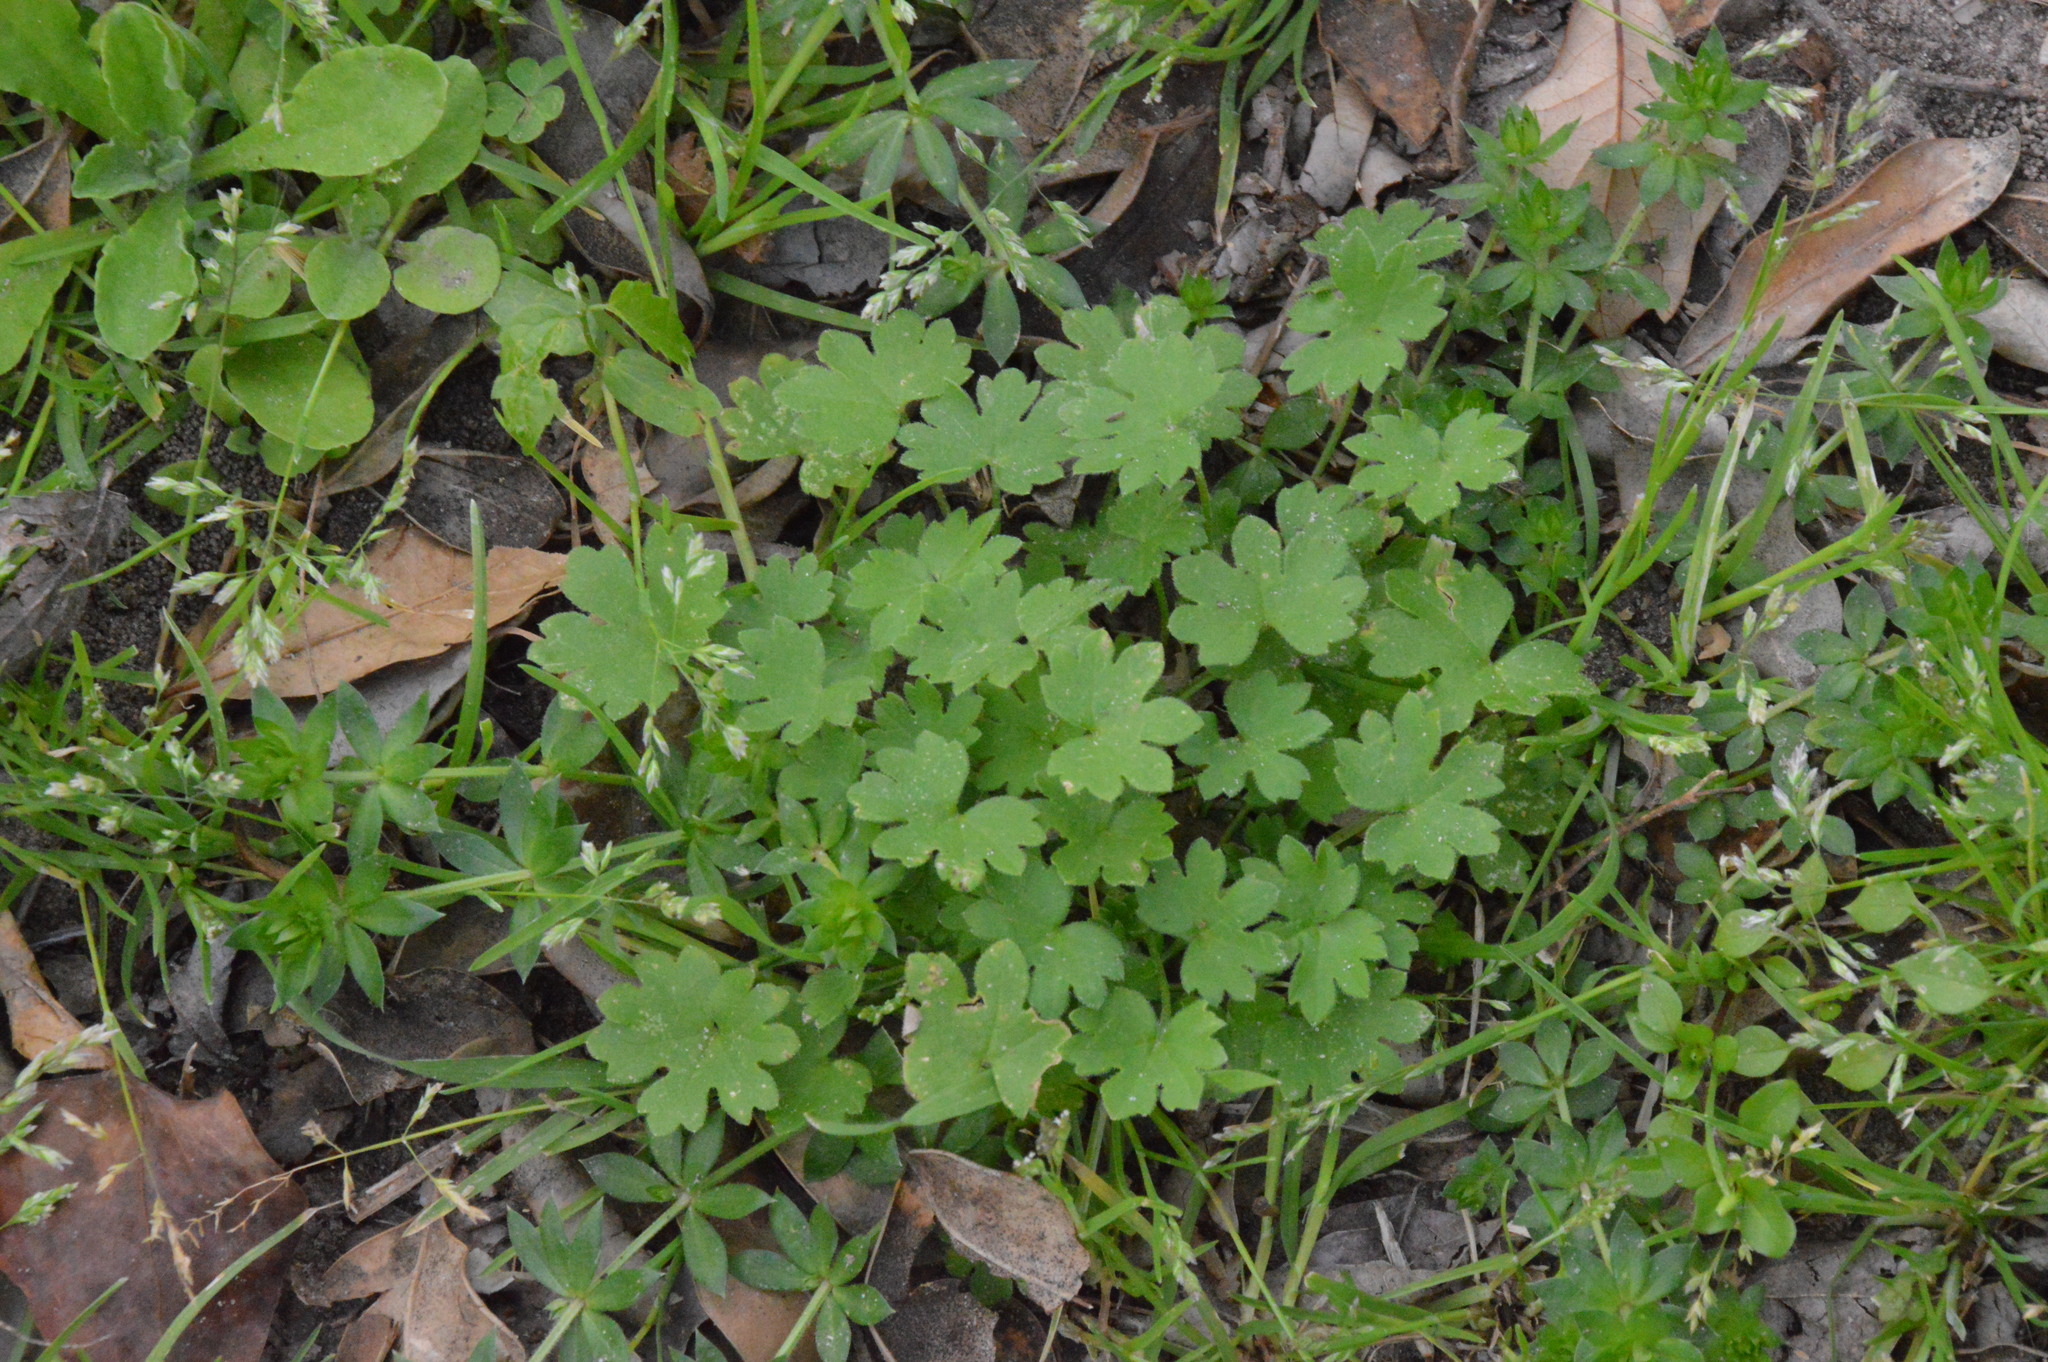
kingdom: Plantae
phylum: Tracheophyta
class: Magnoliopsida
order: Apiales
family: Apiaceae
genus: Bowlesia
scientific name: Bowlesia incana
